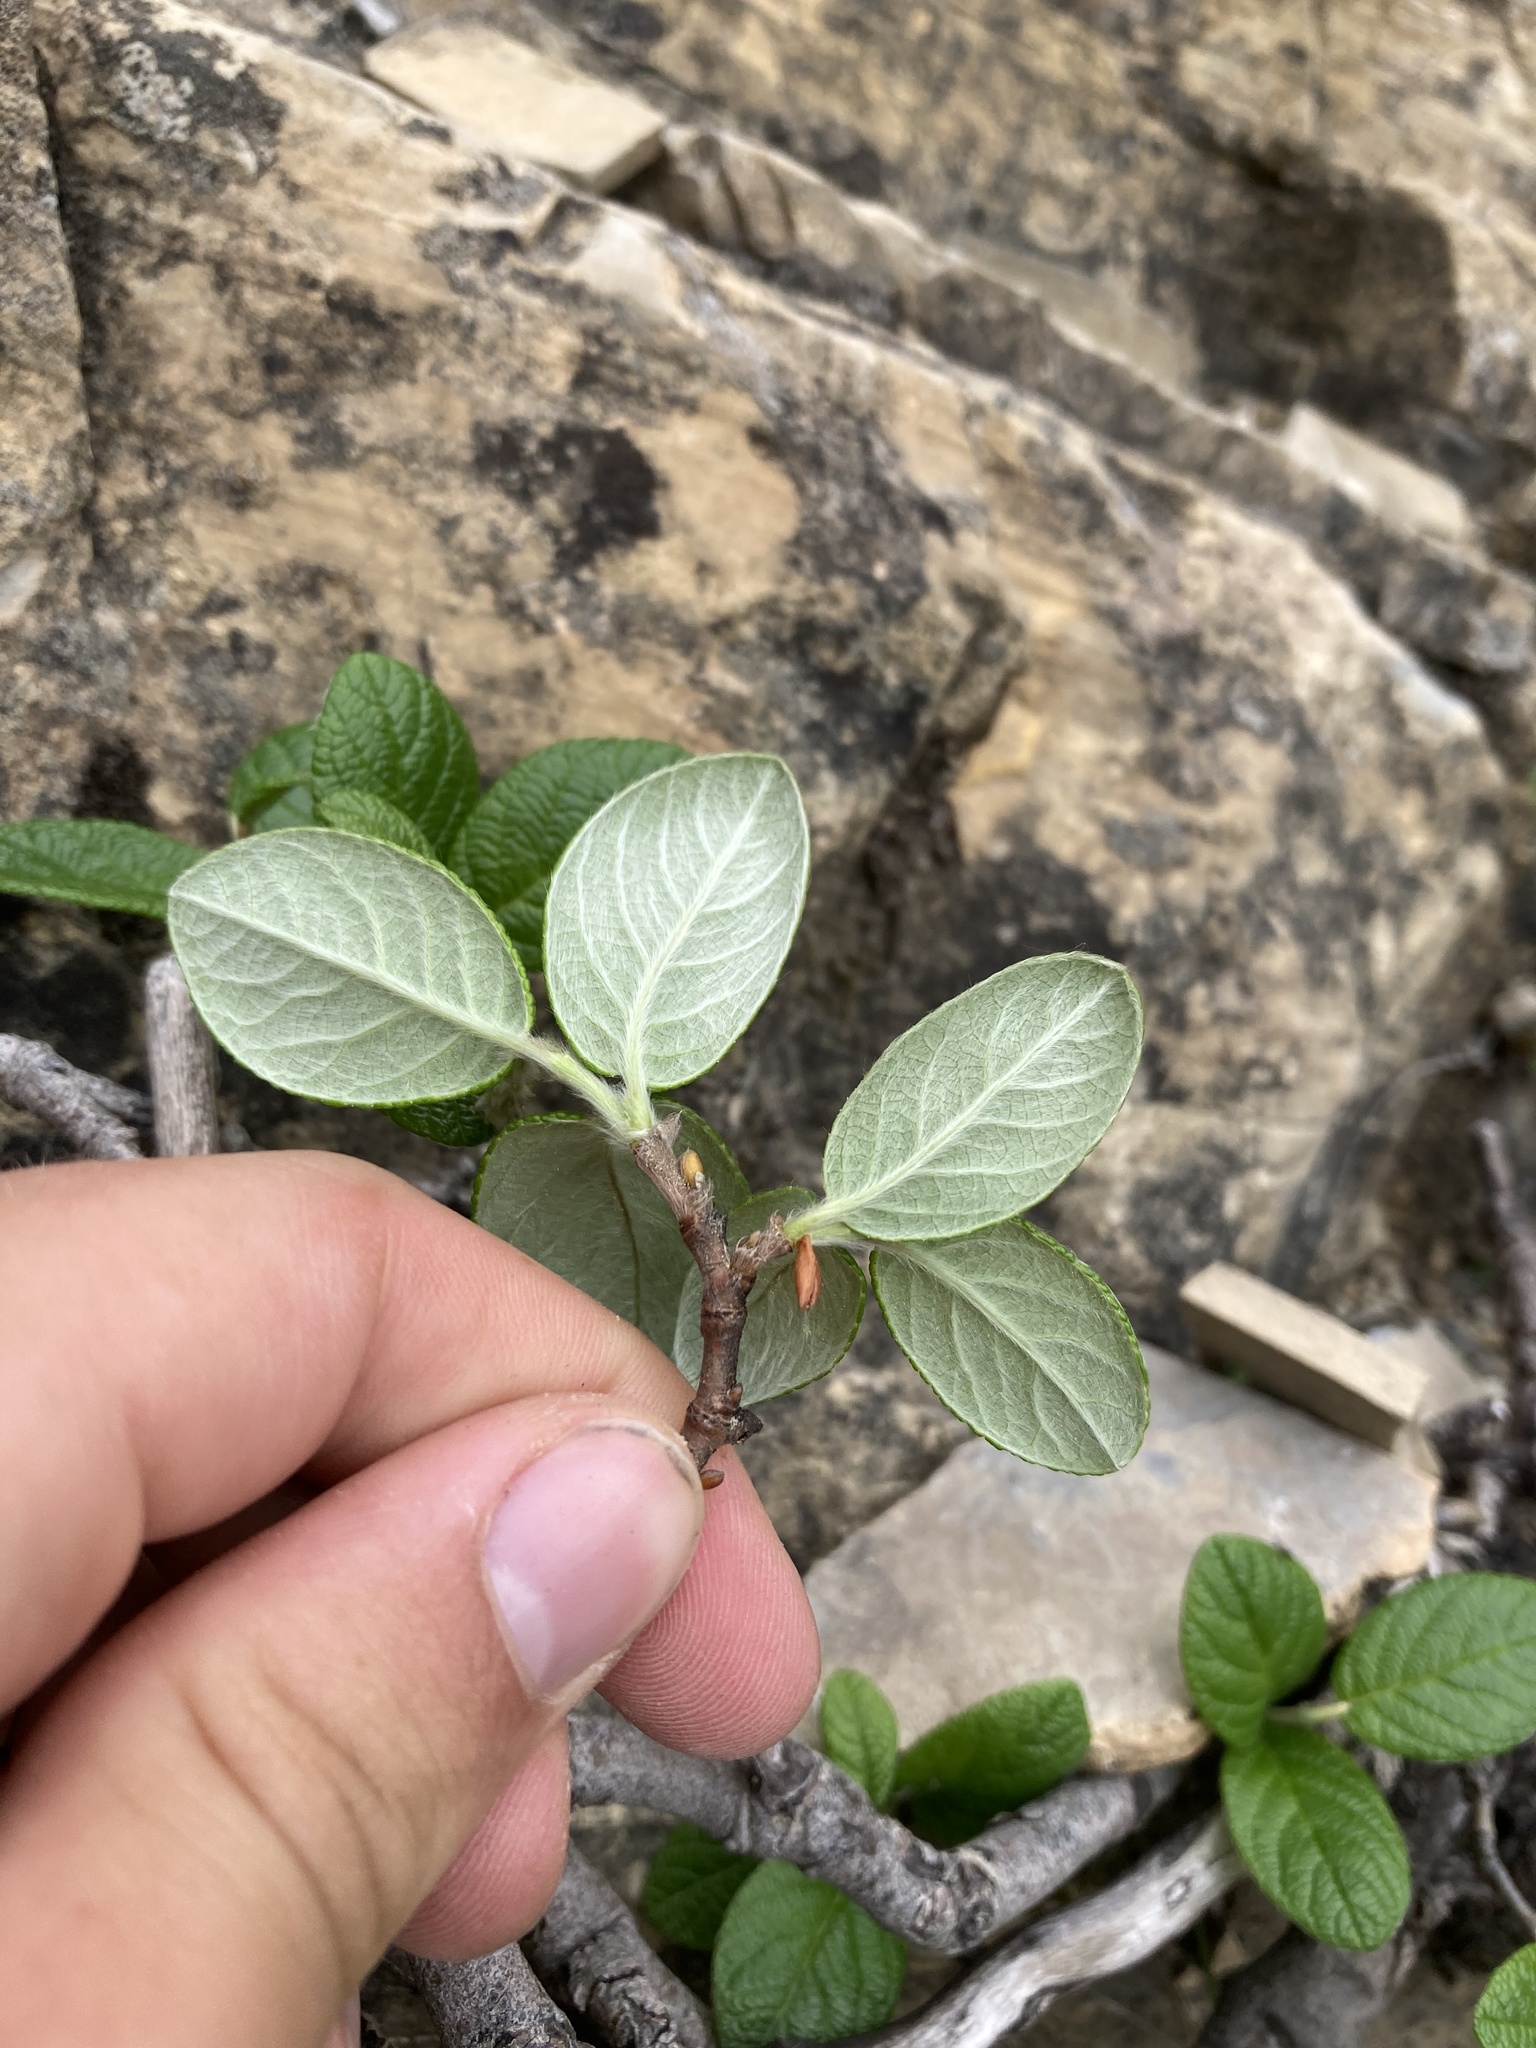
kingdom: Plantae
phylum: Tracheophyta
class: Magnoliopsida
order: Malpighiales
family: Salicaceae
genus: Salix
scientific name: Salix vestita
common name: Hairy willow
